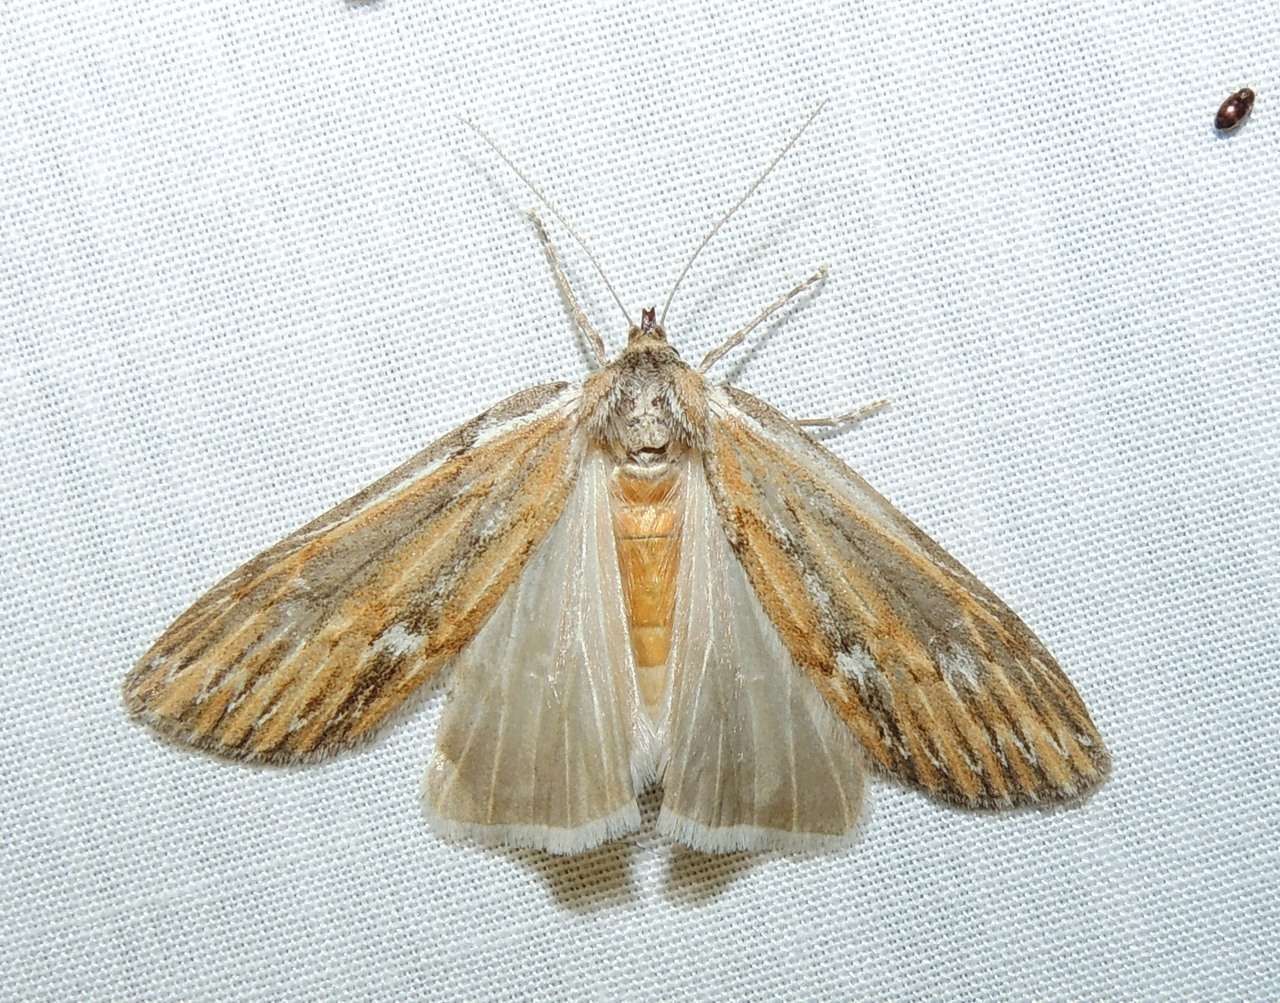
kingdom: Animalia
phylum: Arthropoda
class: Insecta
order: Lepidoptera
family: Geometridae
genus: Ciampa
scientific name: Ciampa arietaria
